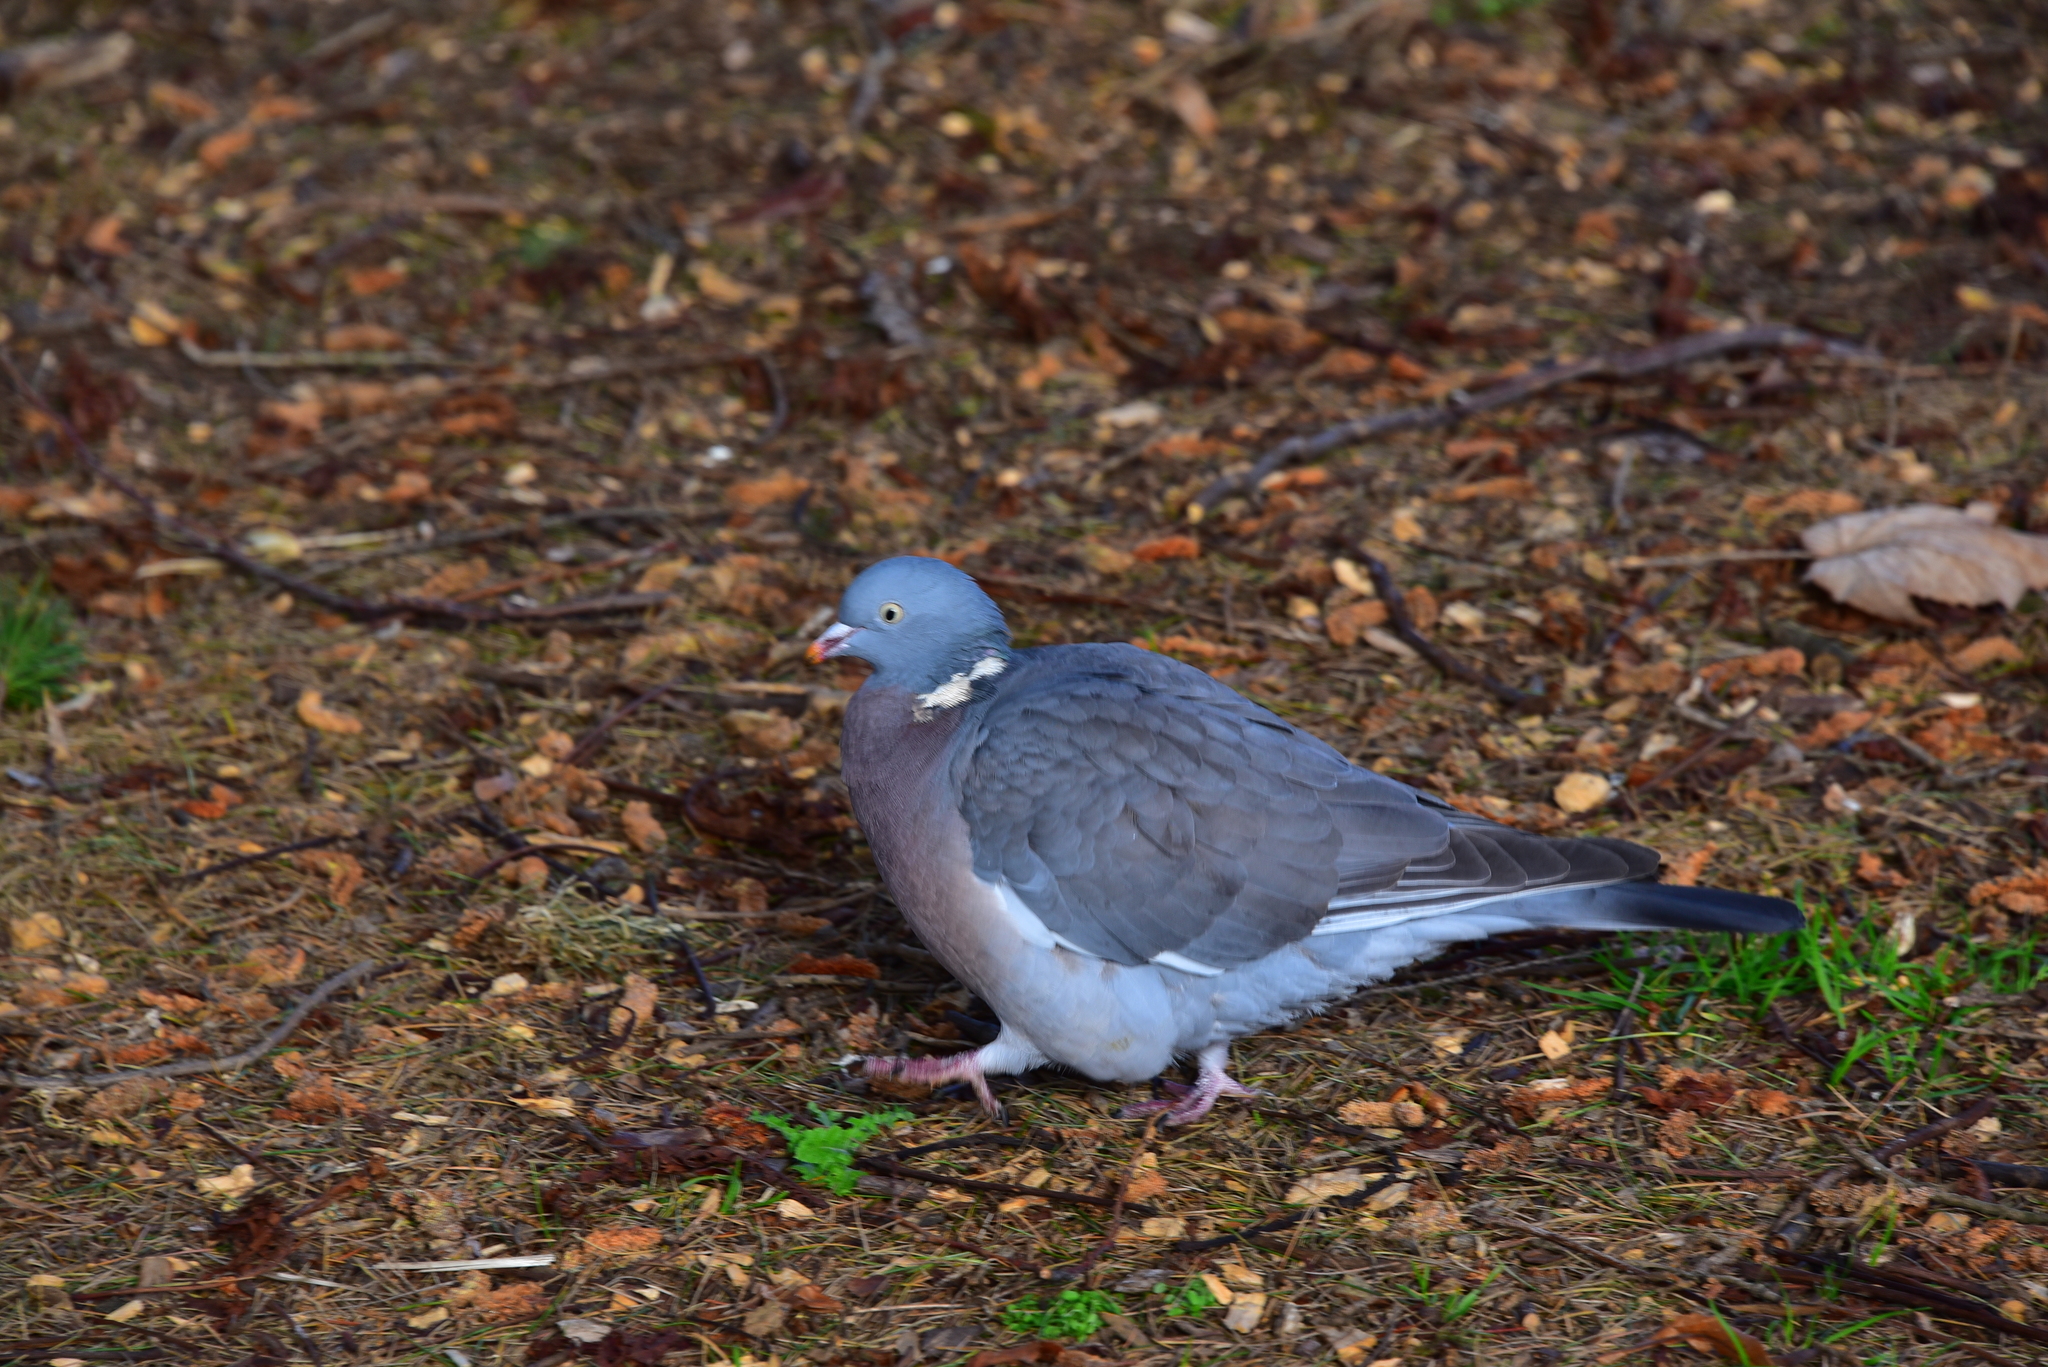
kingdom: Animalia
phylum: Chordata
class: Aves
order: Columbiformes
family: Columbidae
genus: Columba
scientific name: Columba palumbus
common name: Common wood pigeon
